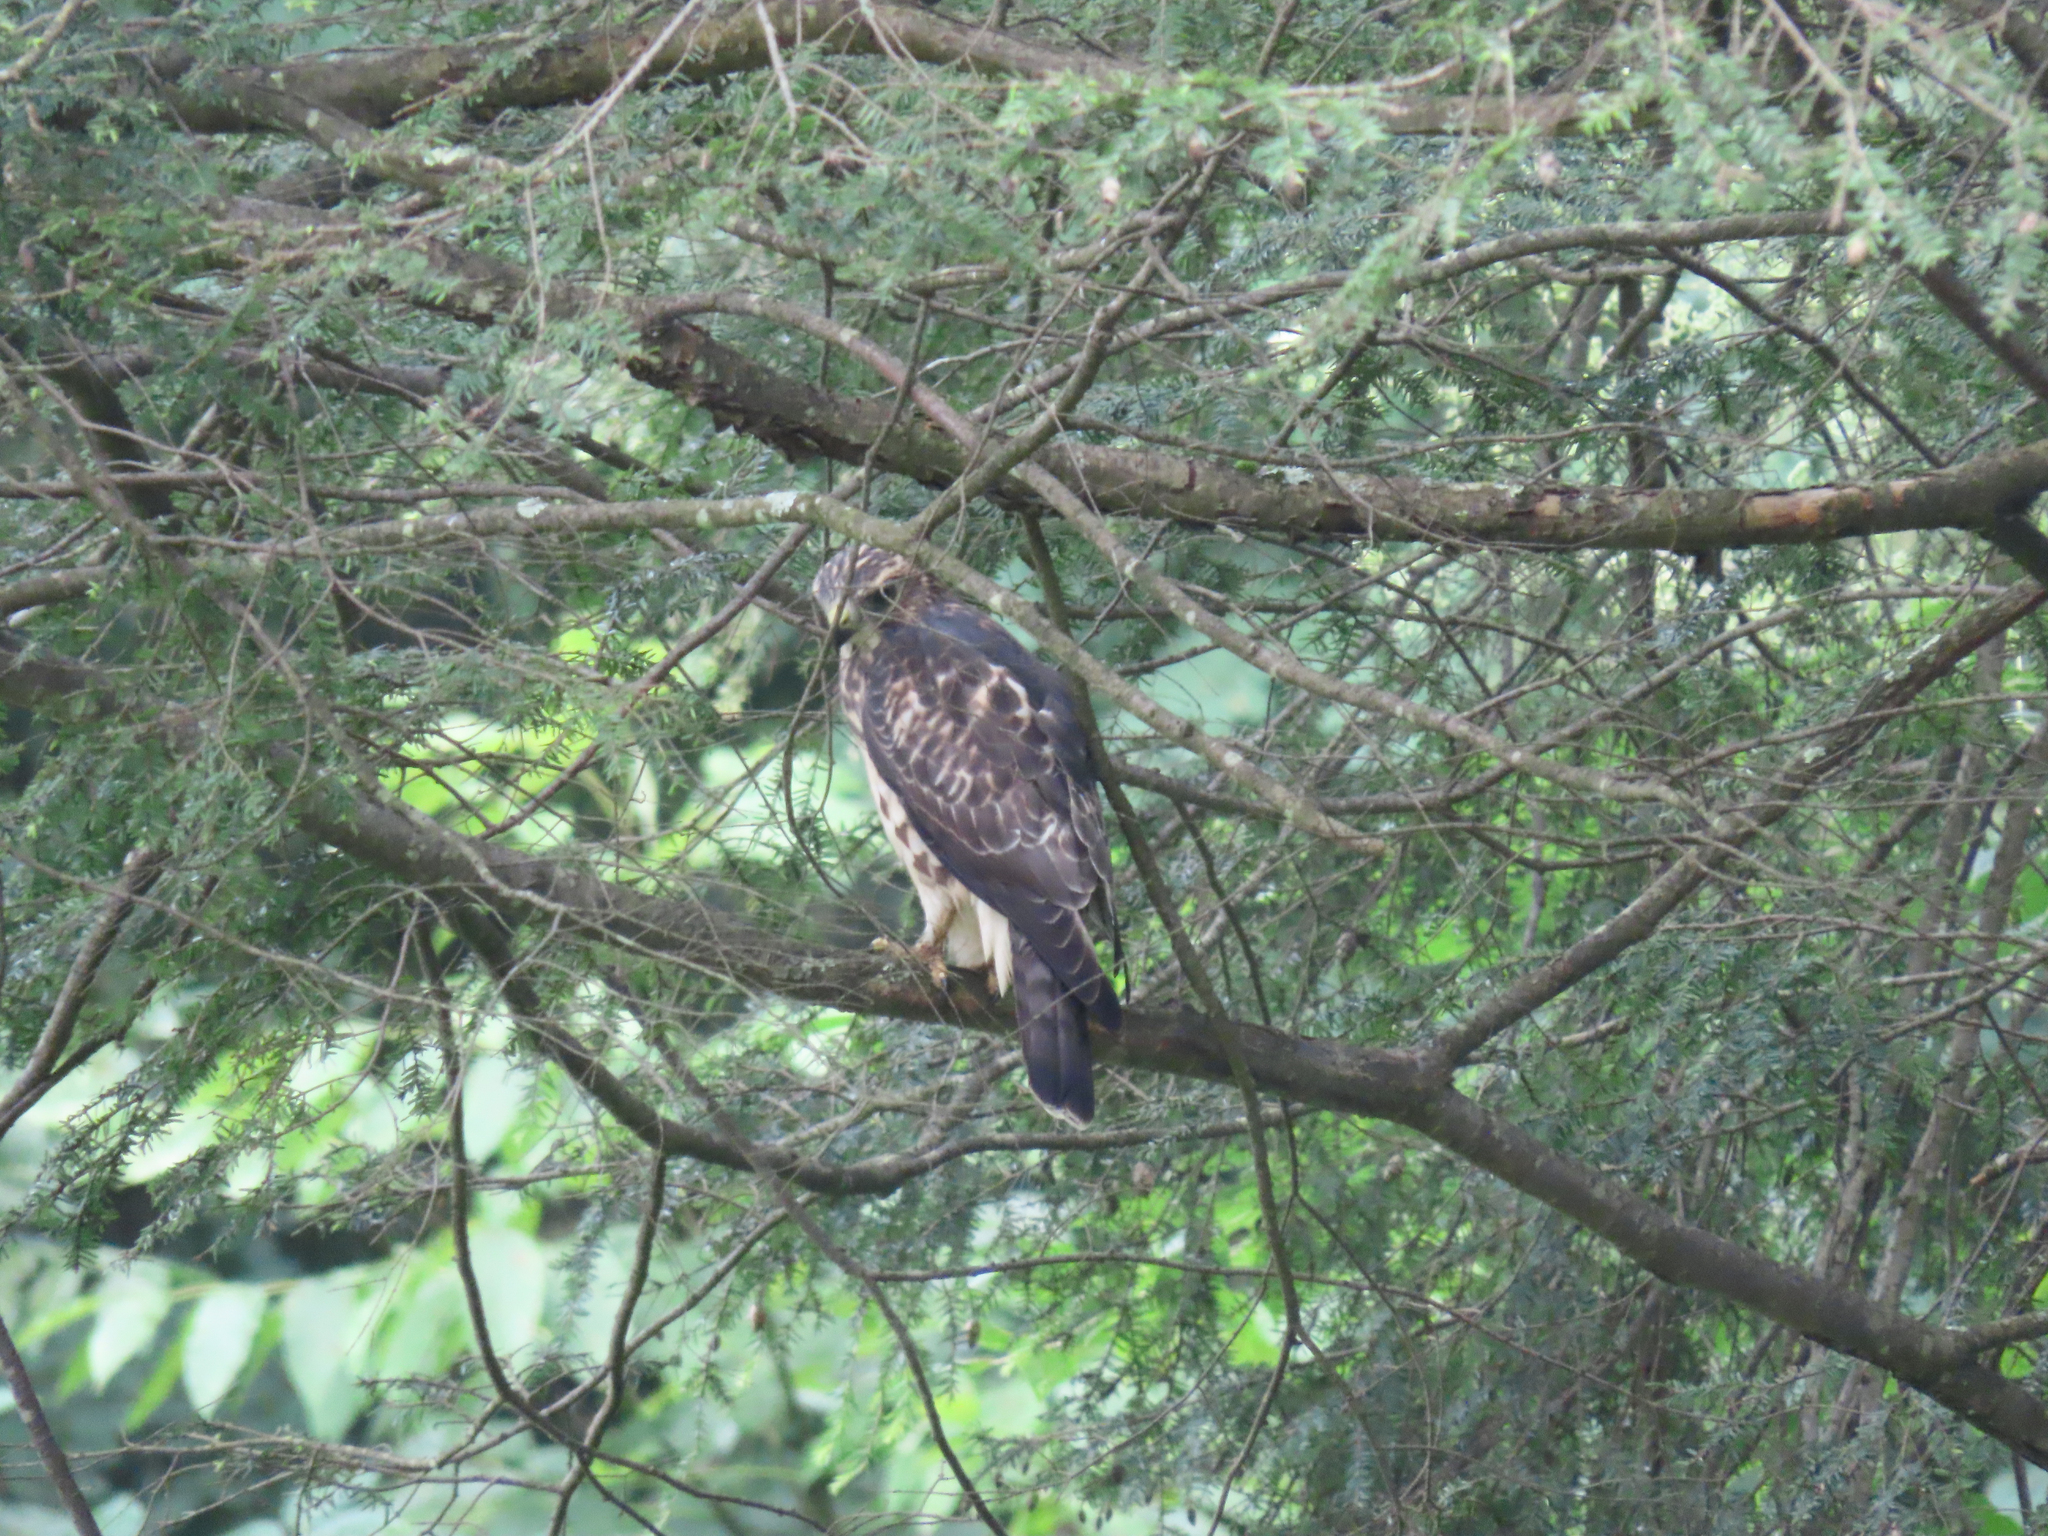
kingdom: Animalia
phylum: Chordata
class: Aves
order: Accipitriformes
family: Accipitridae
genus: Buteo
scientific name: Buteo platypterus
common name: Broad-winged hawk
